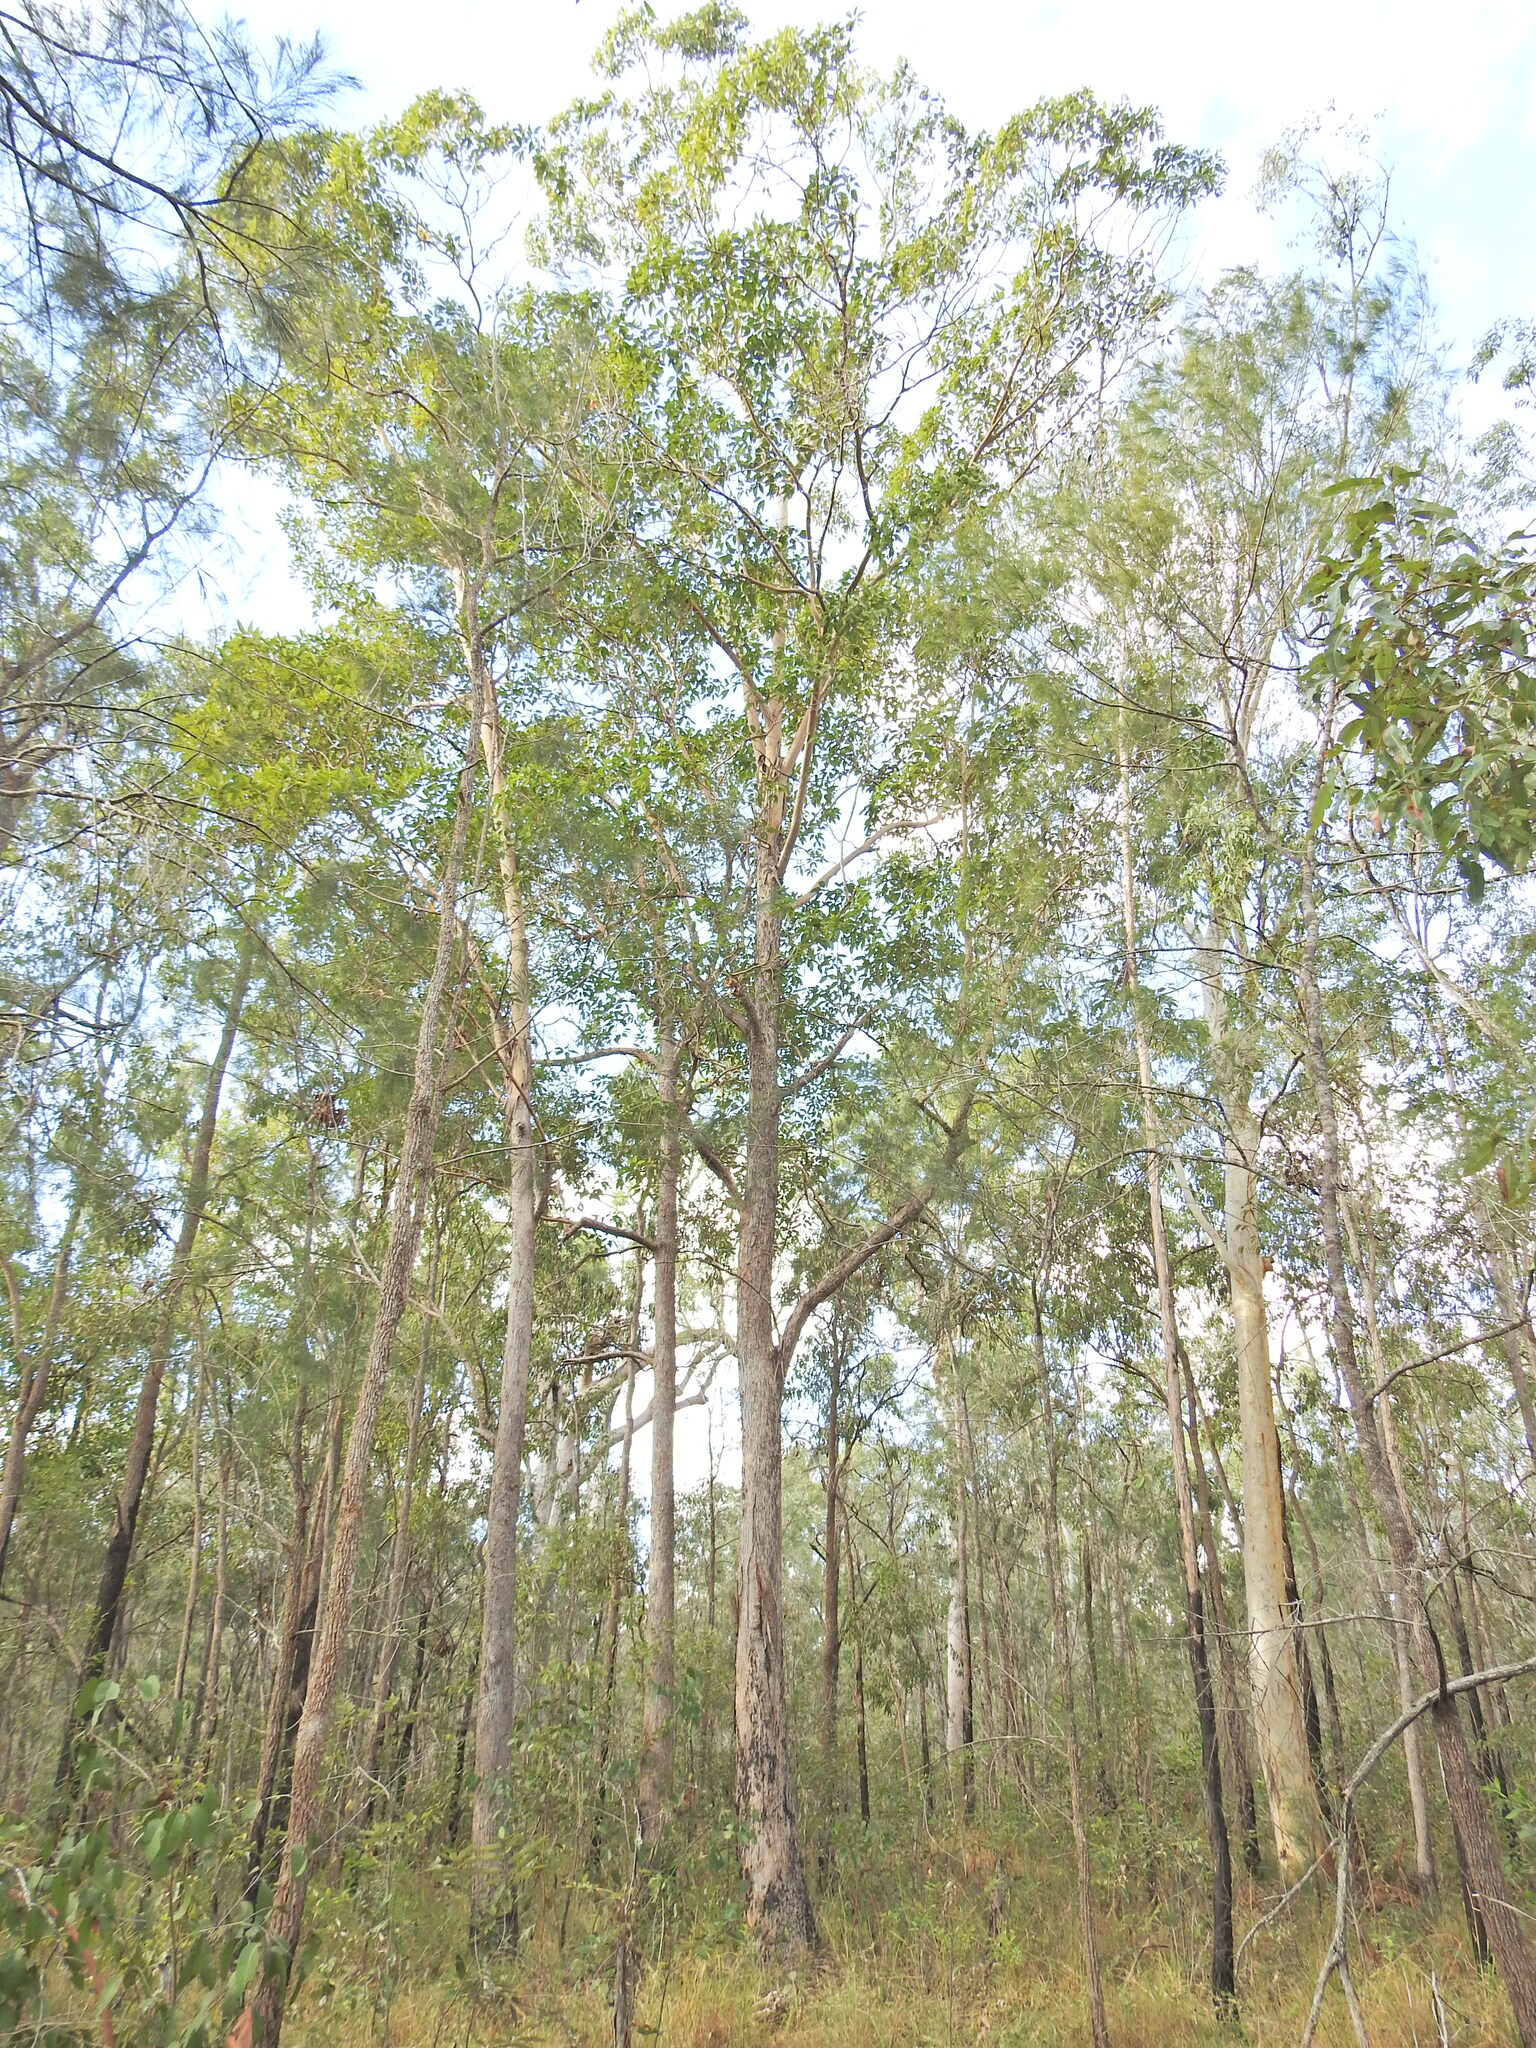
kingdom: Plantae
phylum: Tracheophyta
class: Magnoliopsida
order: Myrtales
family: Myrtaceae
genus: Lophostemon
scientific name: Lophostemon confertus
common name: Brisbane box
